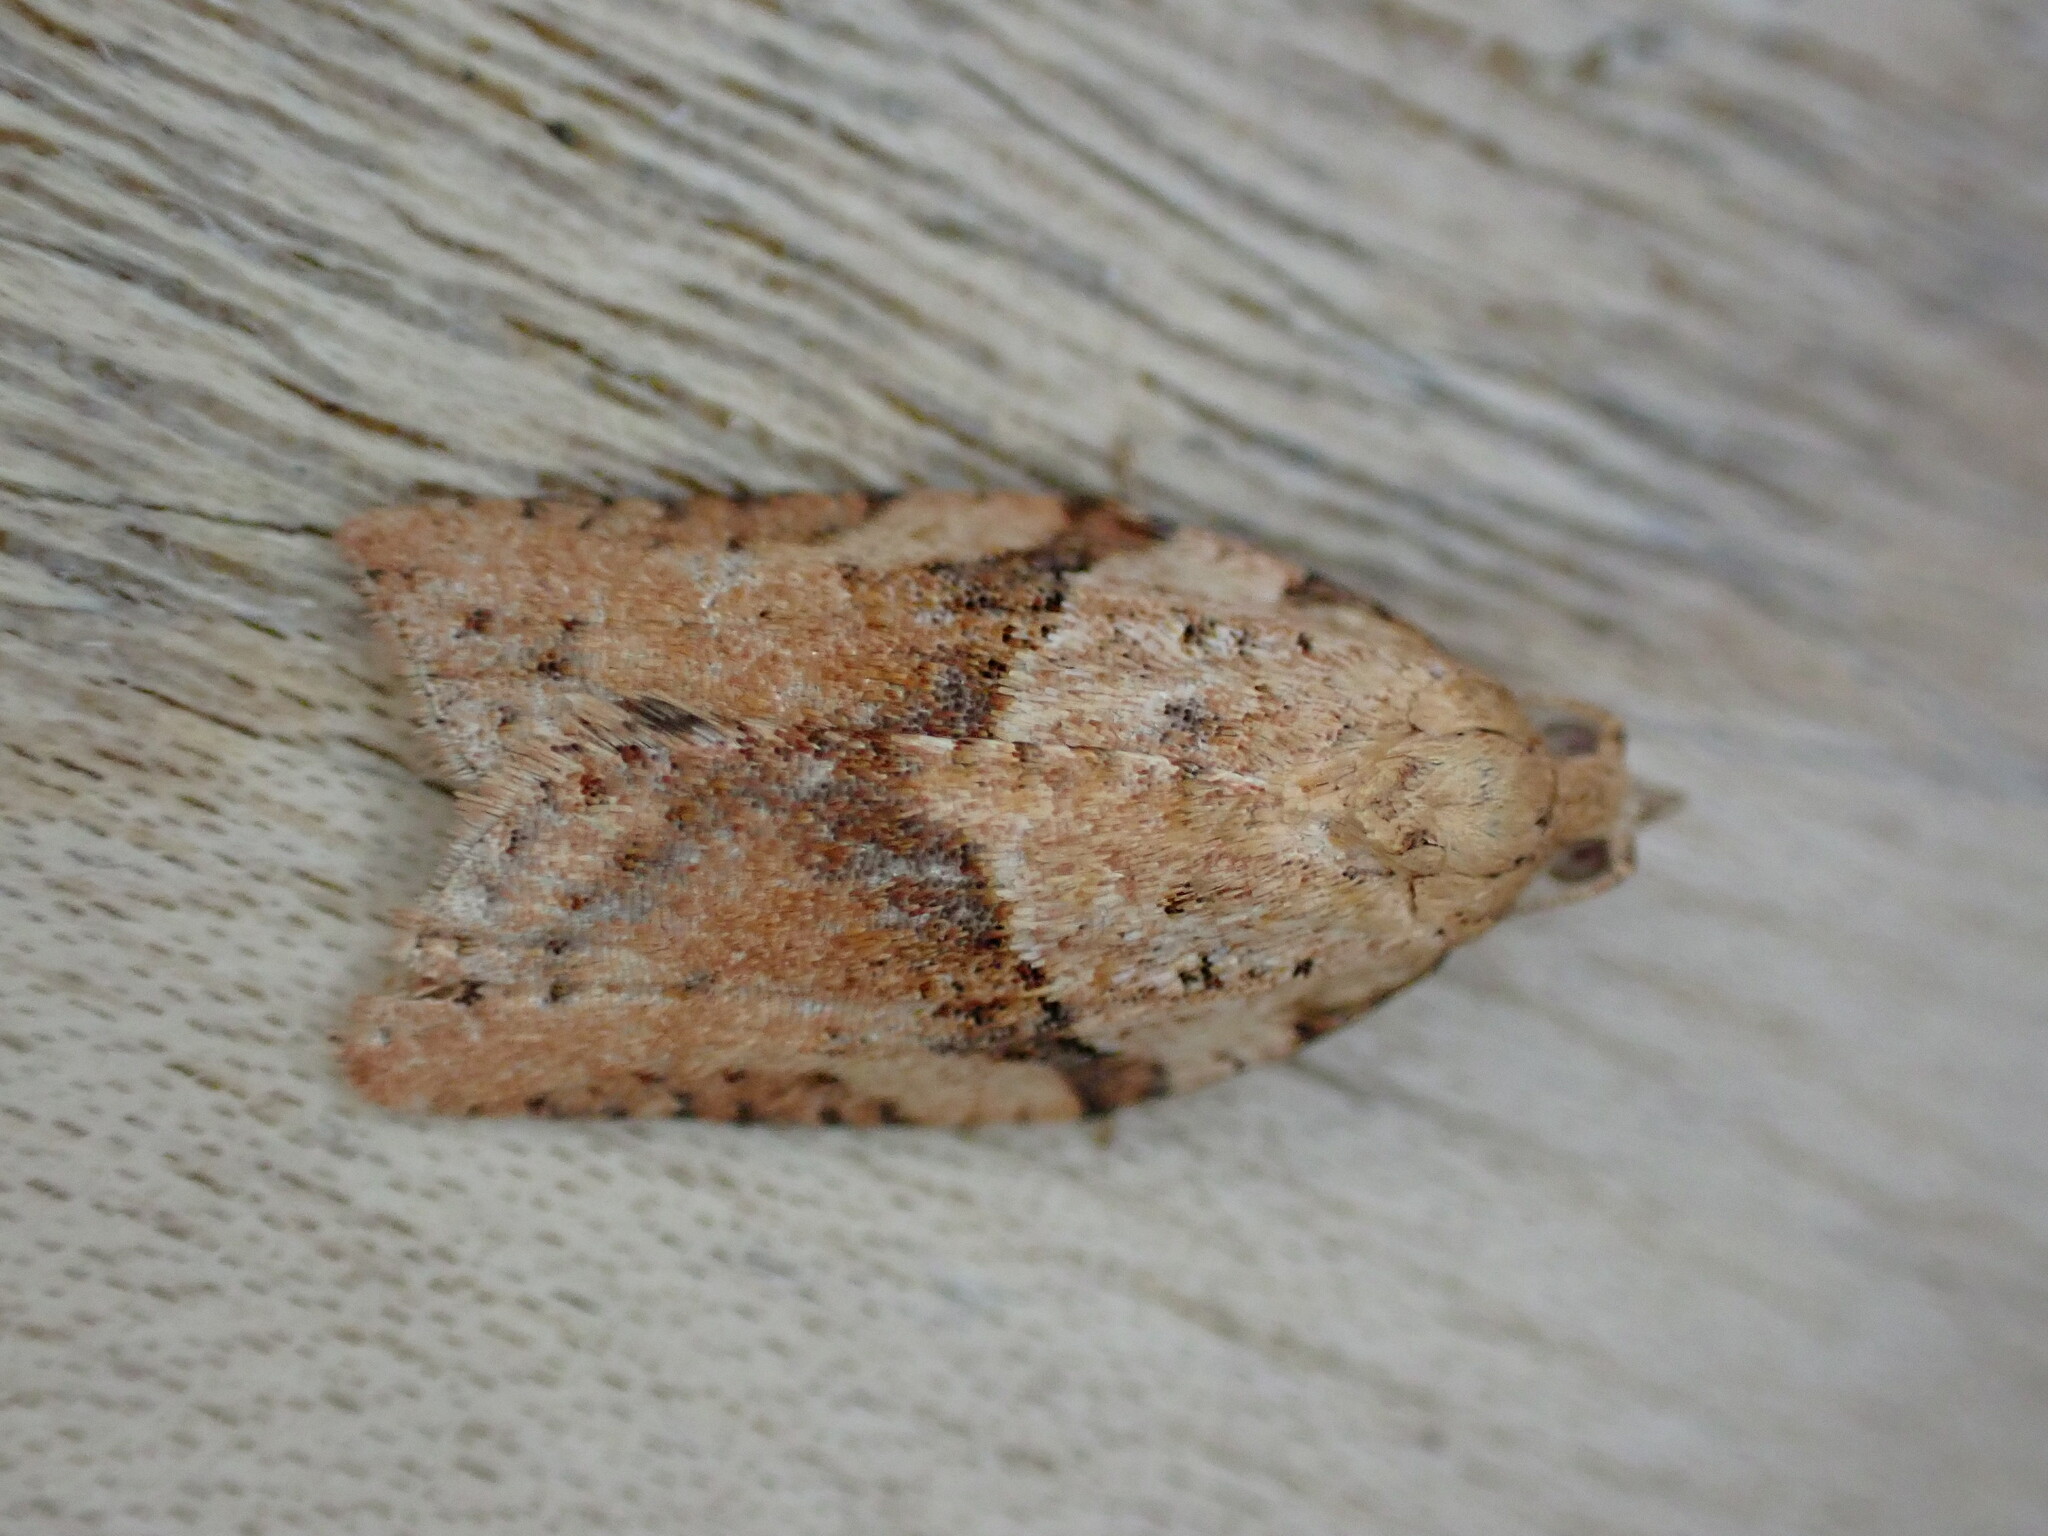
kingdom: Animalia
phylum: Arthropoda
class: Insecta
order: Lepidoptera
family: Tortricidae
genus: Epiphyas
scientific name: Epiphyas postvittana
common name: Light brown apple moth
